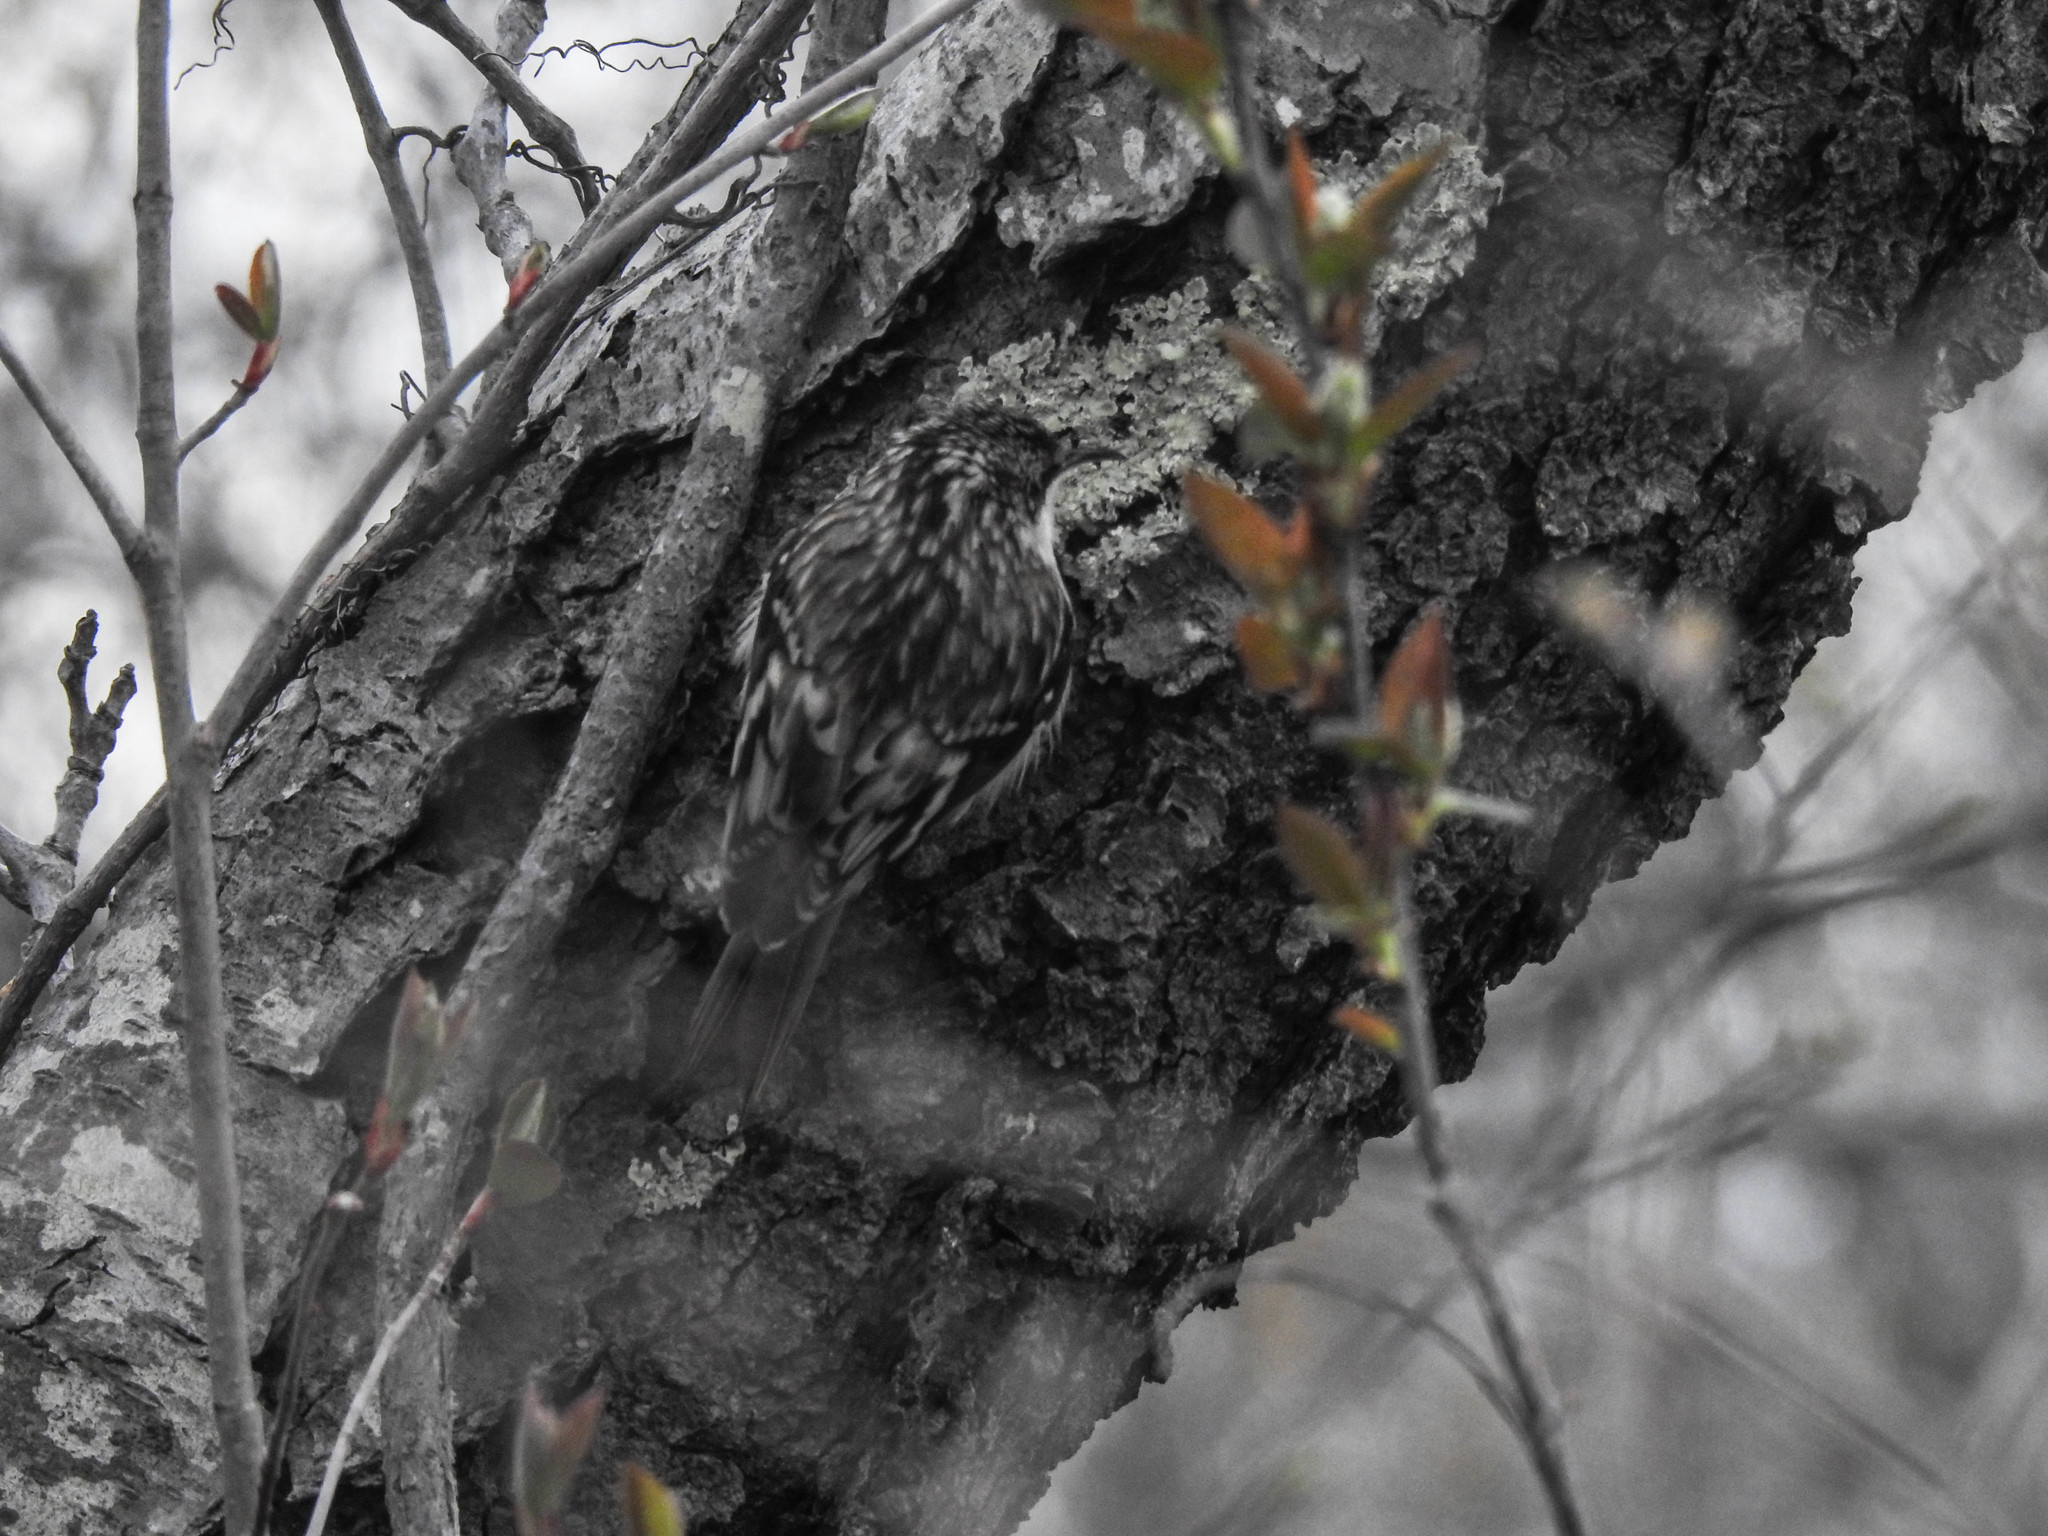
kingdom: Animalia
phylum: Chordata
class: Aves
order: Passeriformes
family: Certhiidae
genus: Certhia
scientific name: Certhia americana
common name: Brown creeper
